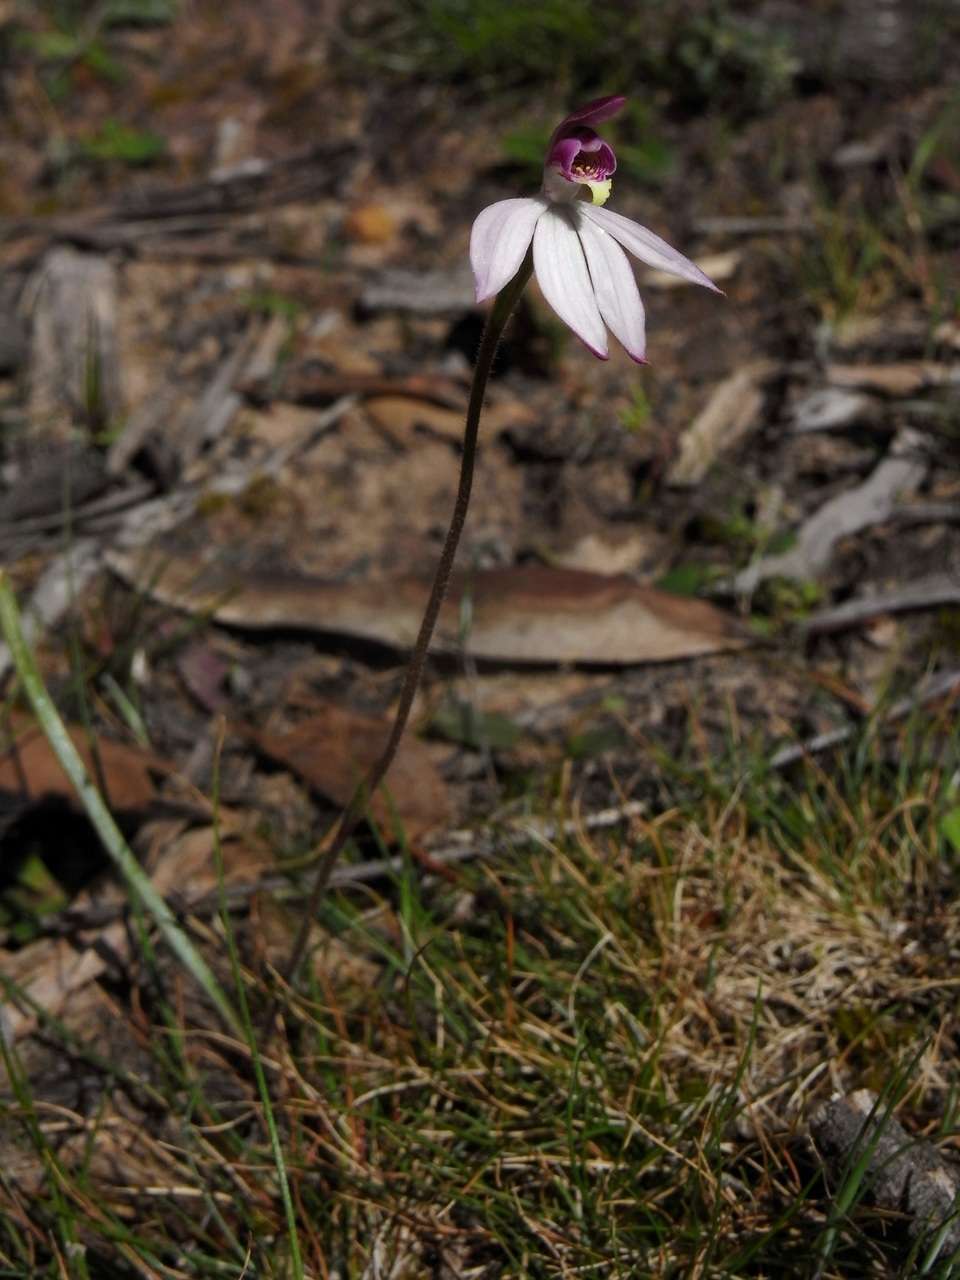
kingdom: Plantae
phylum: Tracheophyta
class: Liliopsida
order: Asparagales
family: Orchidaceae
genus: Caladenia
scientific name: Caladenia ornata
